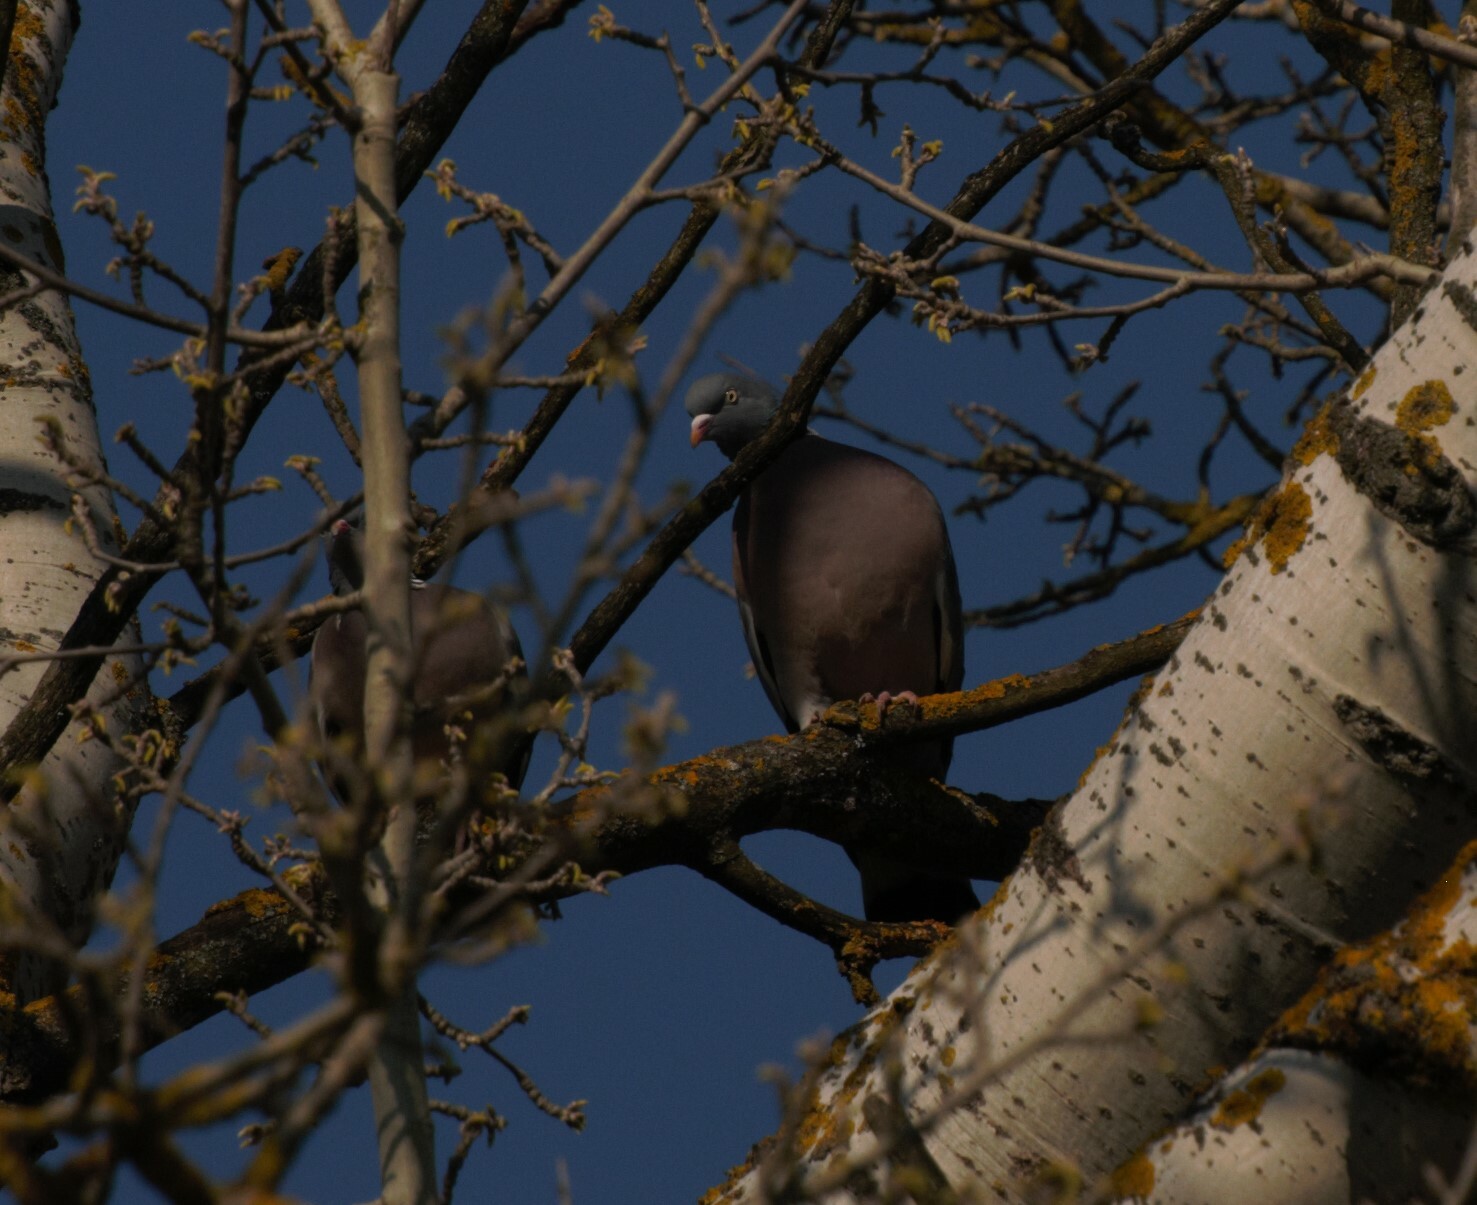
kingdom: Animalia
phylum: Chordata
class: Aves
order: Columbiformes
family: Columbidae
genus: Columba
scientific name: Columba palumbus
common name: Common wood pigeon
